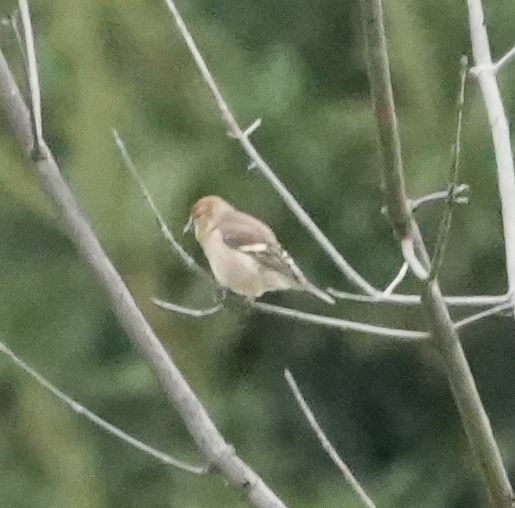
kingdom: Animalia
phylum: Chordata
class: Aves
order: Passeriformes
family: Fringillidae
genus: Spinus
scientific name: Spinus tristis
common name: American goldfinch
